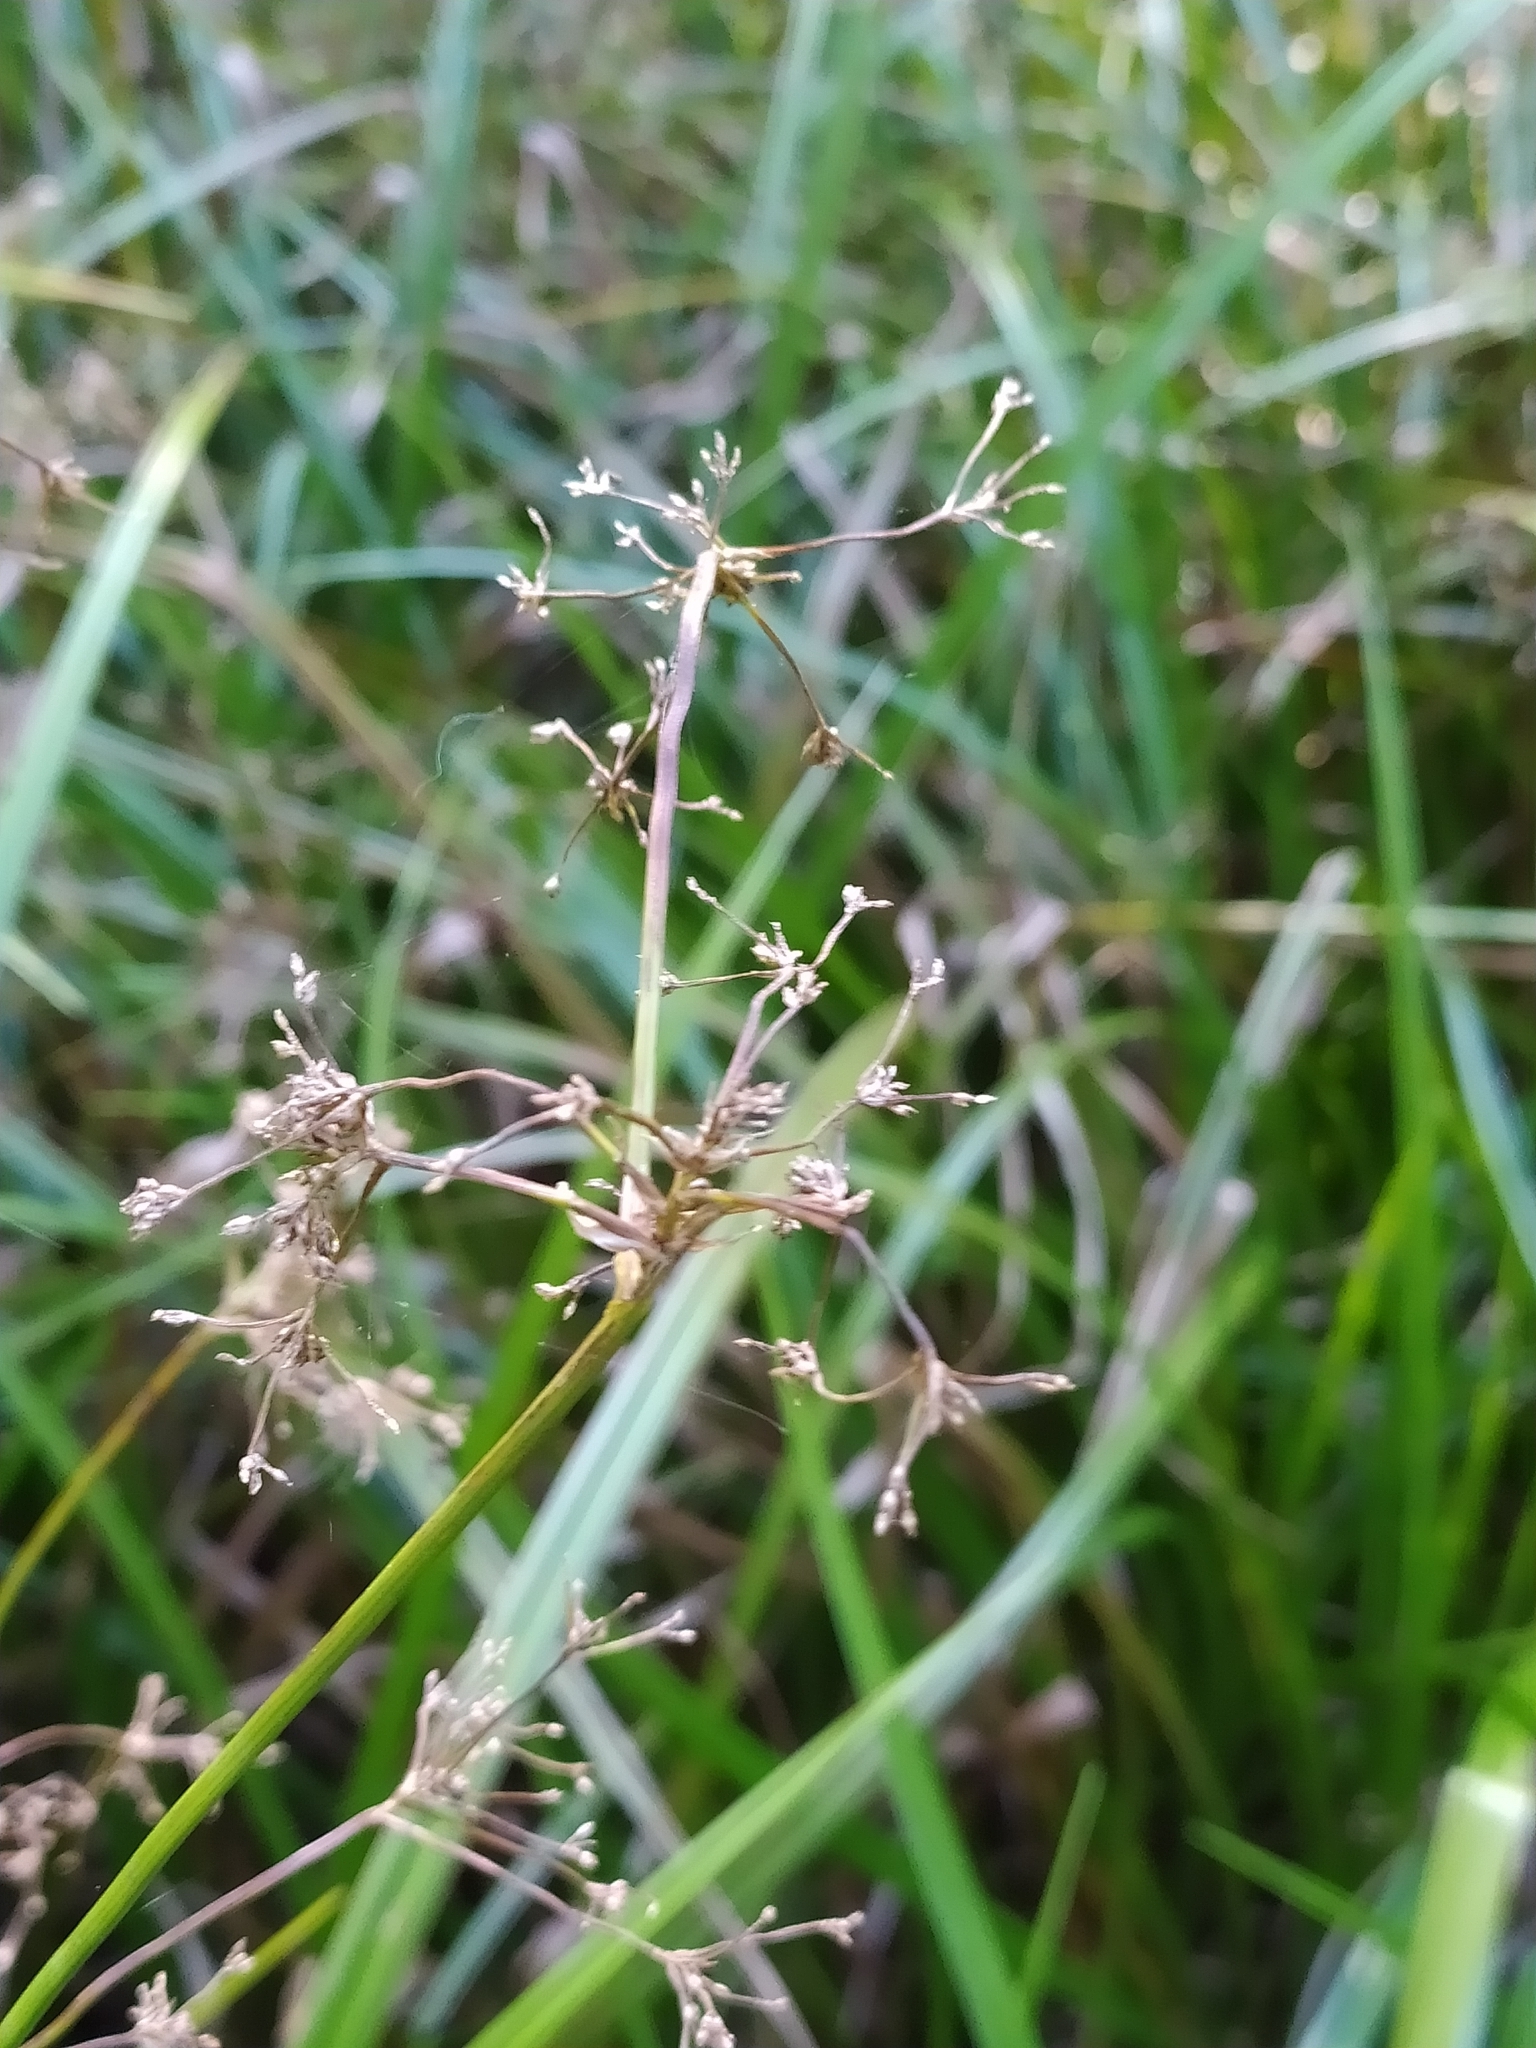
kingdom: Plantae
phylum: Tracheophyta
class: Liliopsida
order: Poales
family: Cyperaceae
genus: Scirpus
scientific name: Scirpus sylvaticus
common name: Wood club-rush
